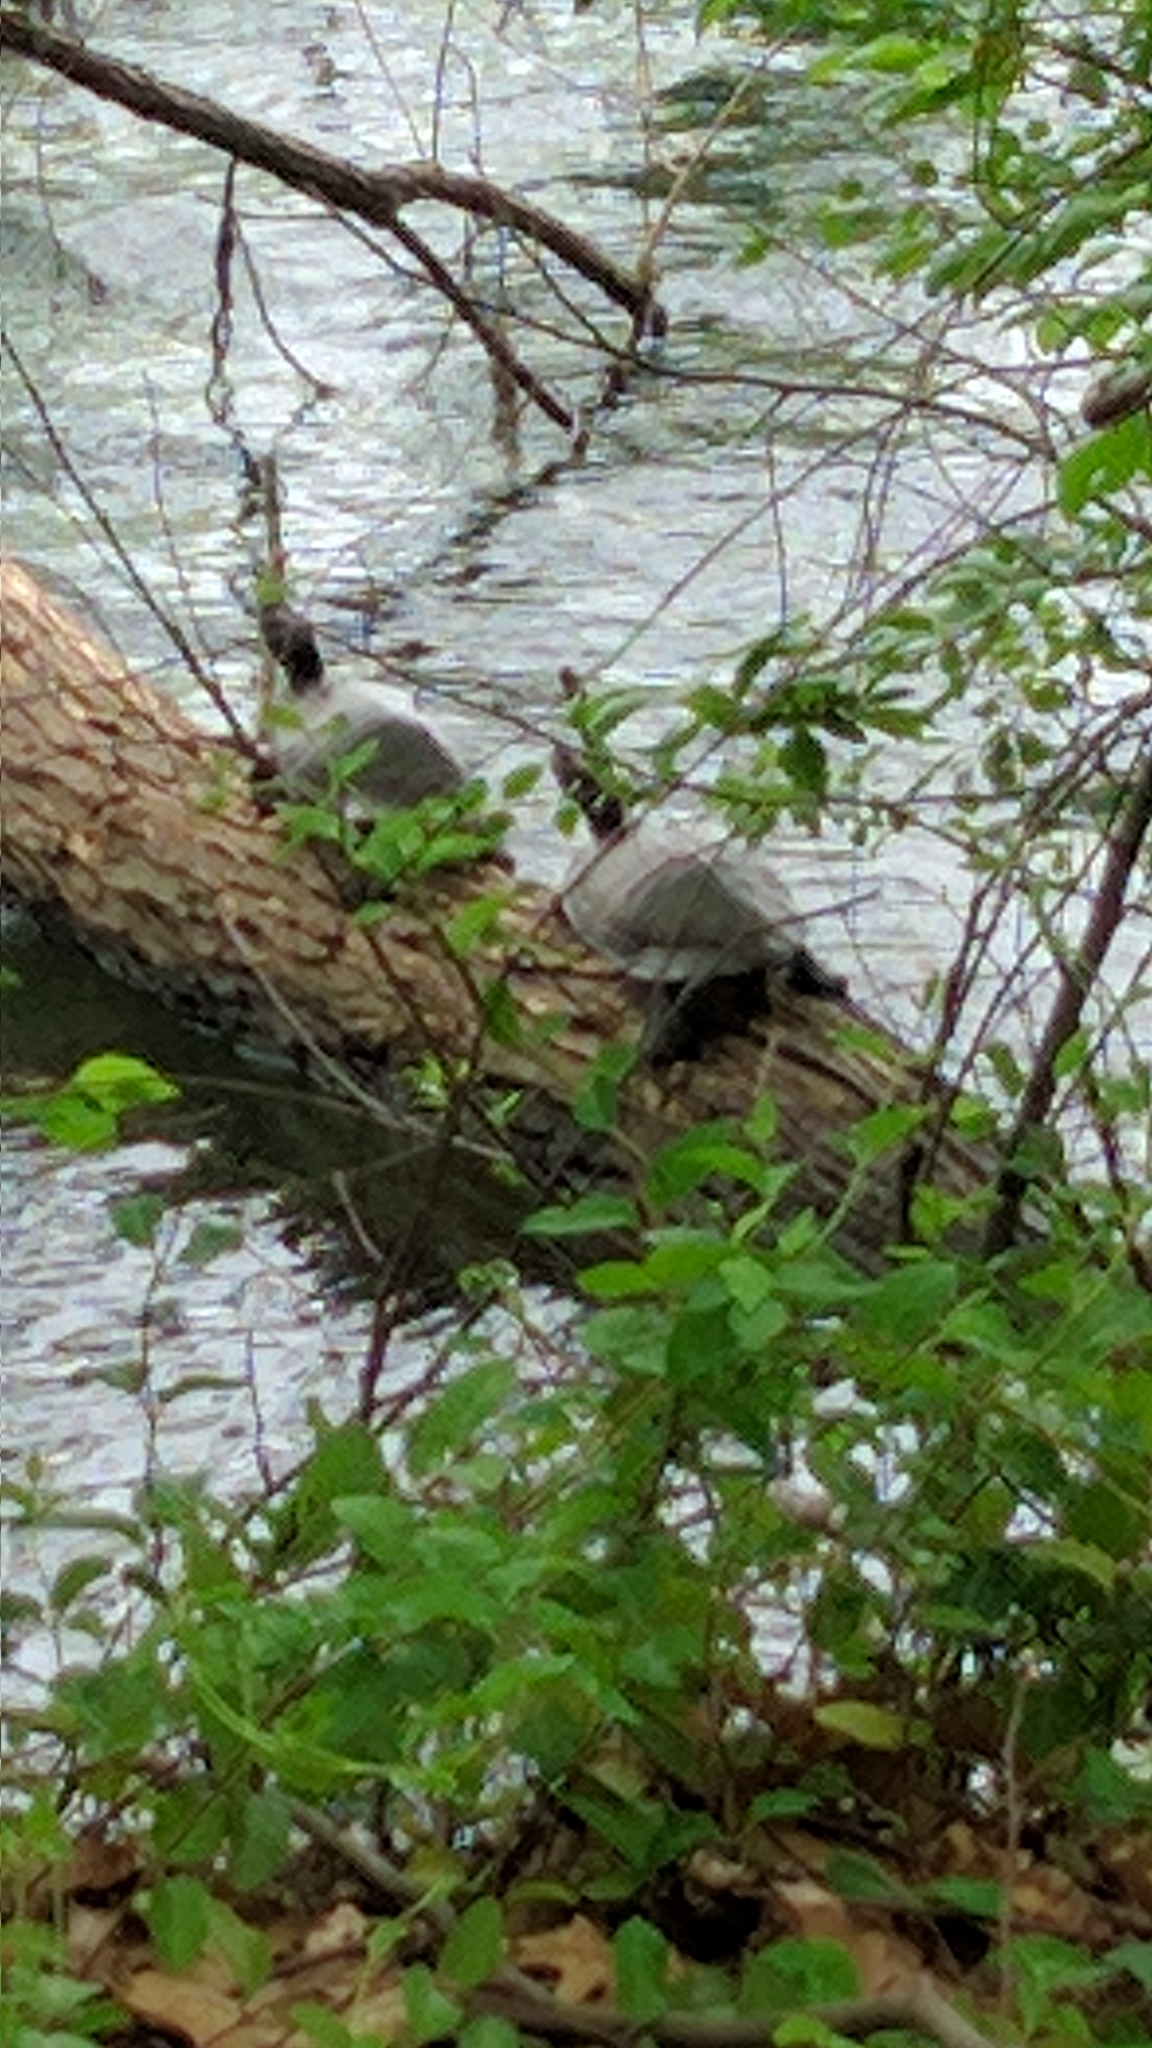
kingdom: Animalia
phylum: Chordata
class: Testudines
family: Emydidae
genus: Pseudemys
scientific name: Pseudemys rubriventris
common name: American red-bellied turtle
